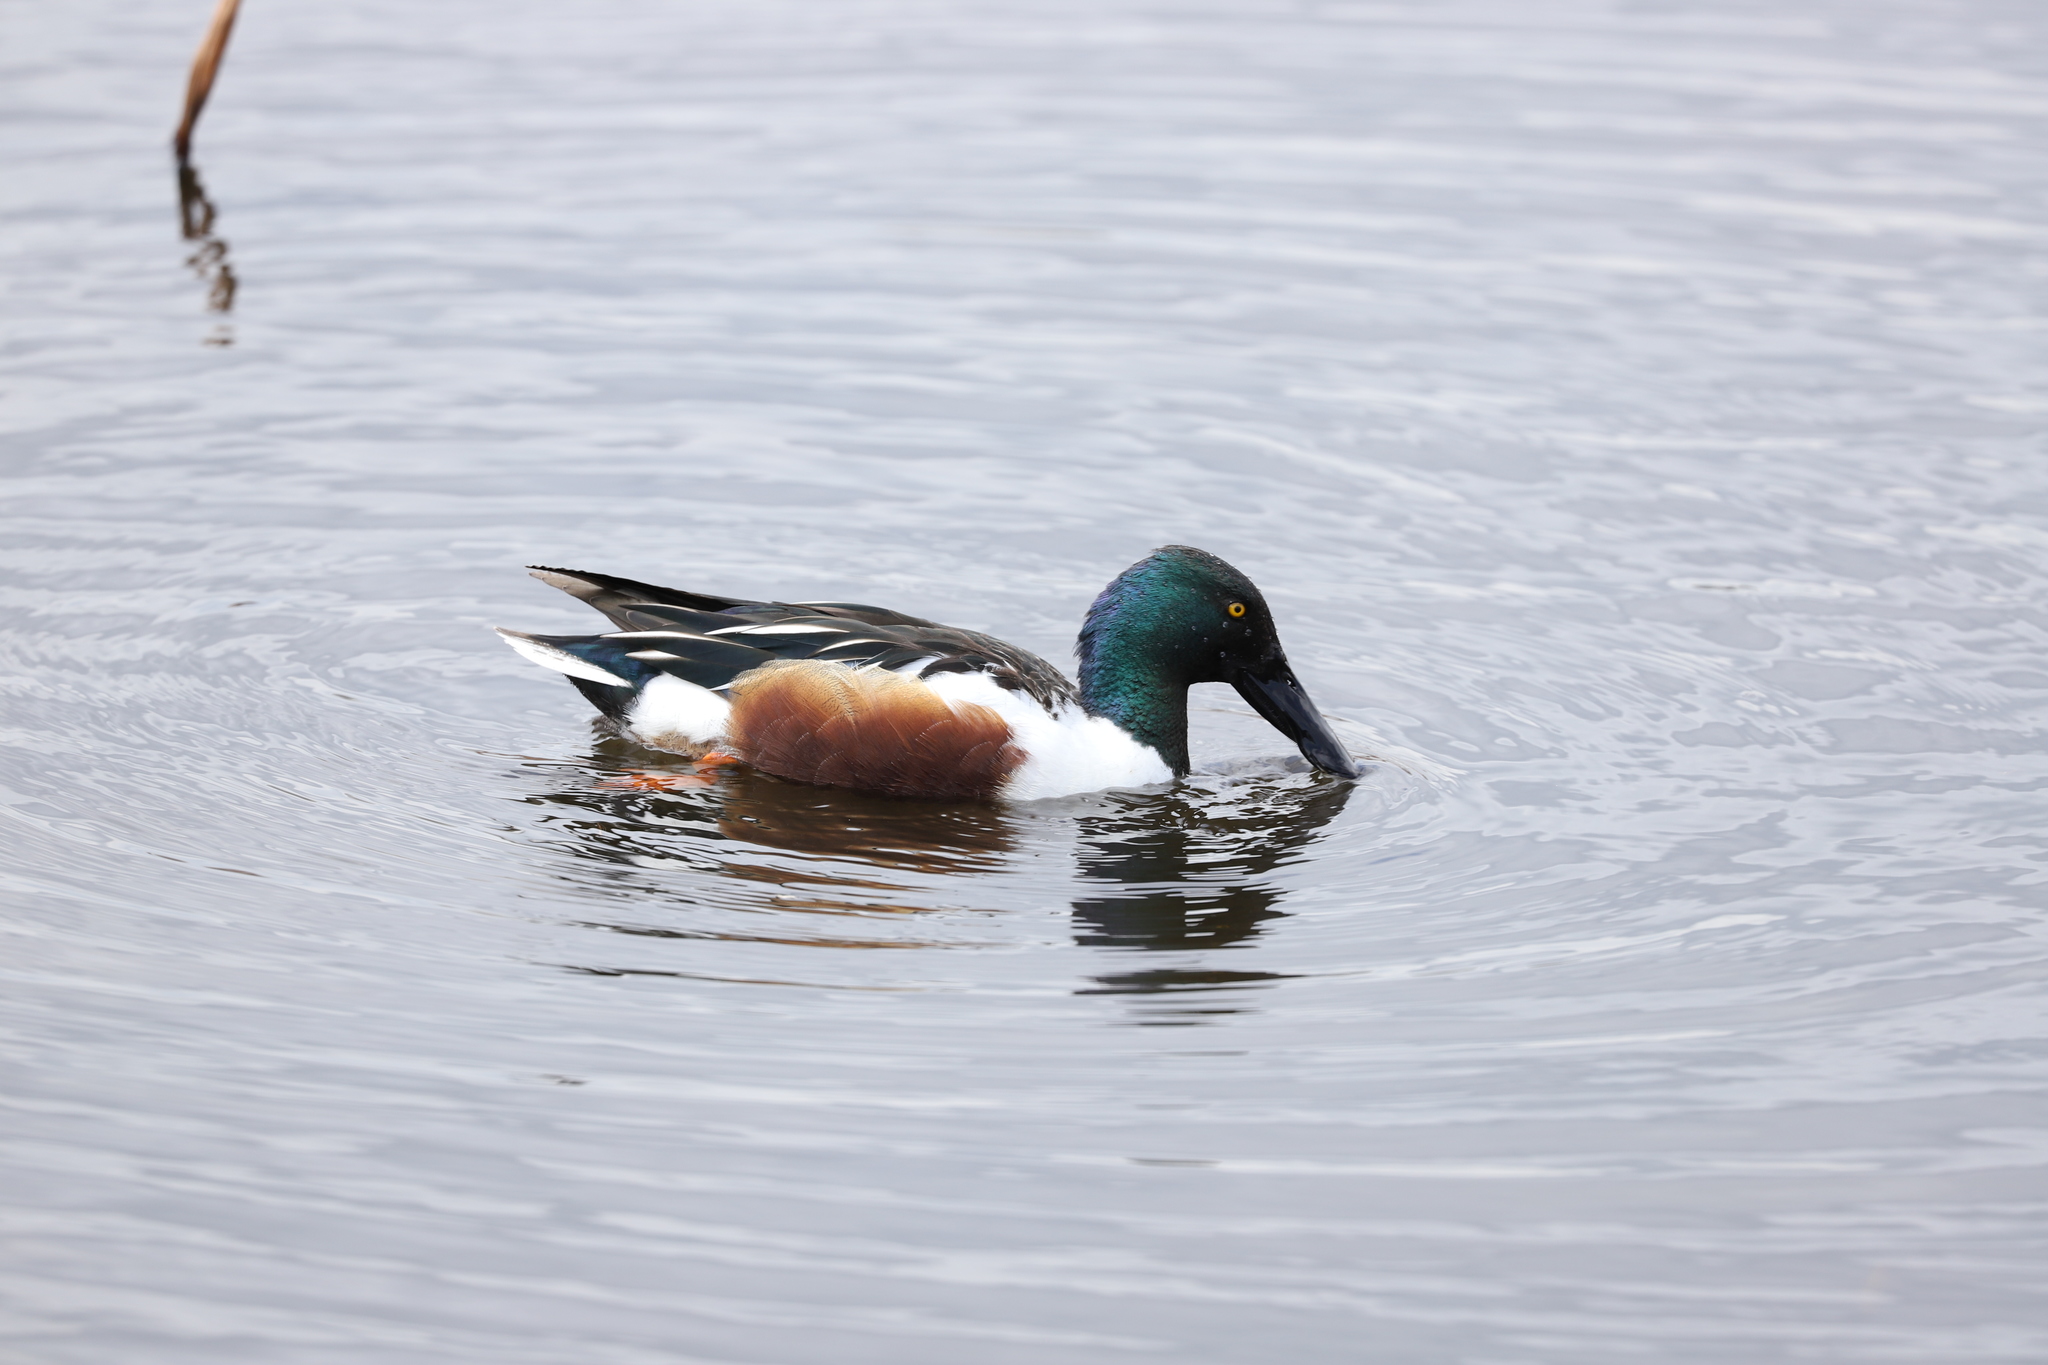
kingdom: Animalia
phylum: Chordata
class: Aves
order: Anseriformes
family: Anatidae
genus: Spatula
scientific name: Spatula clypeata
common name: Northern shoveler
